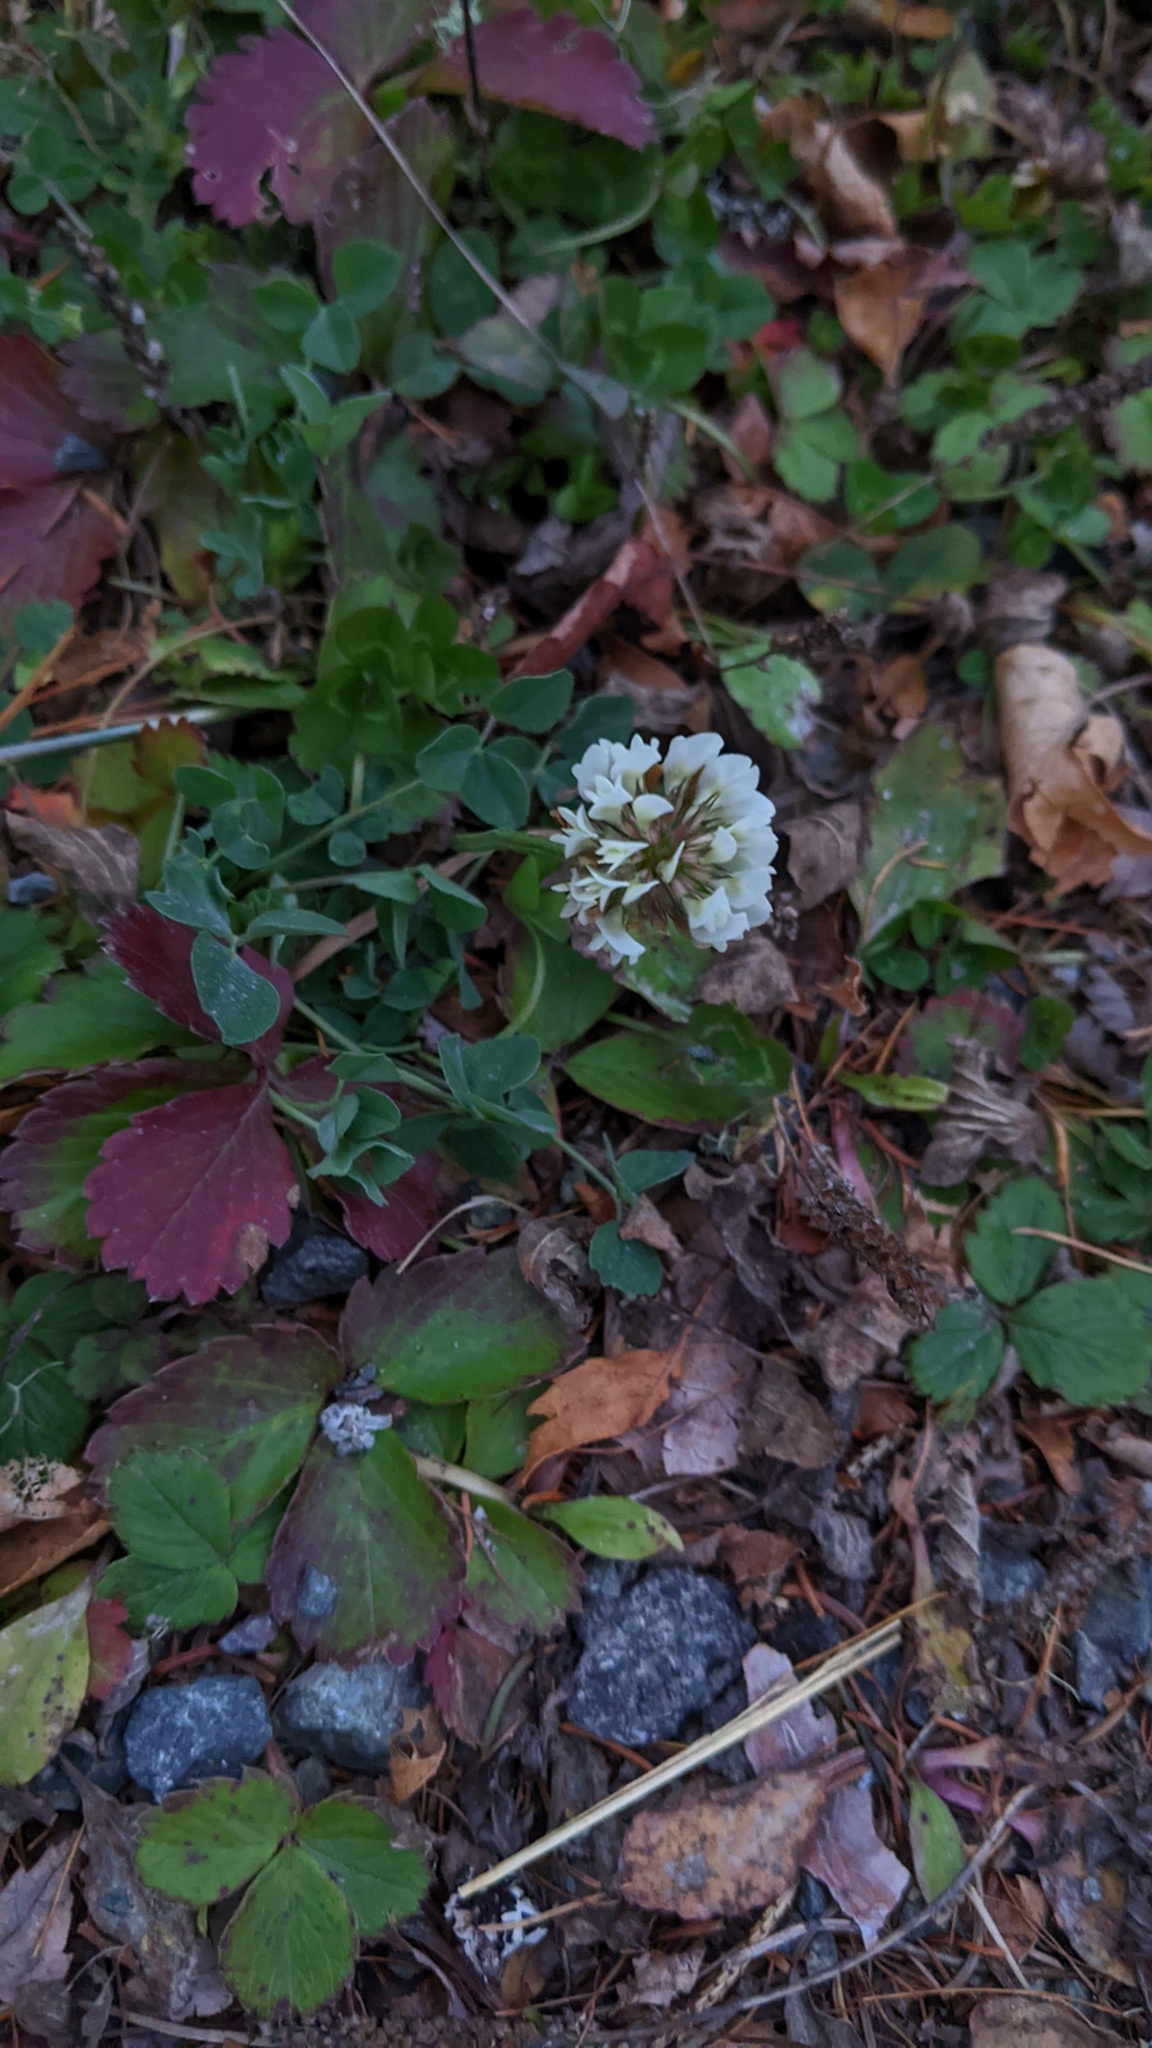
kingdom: Plantae
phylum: Tracheophyta
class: Magnoliopsida
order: Fabales
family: Fabaceae
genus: Trifolium
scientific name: Trifolium repens
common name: White clover
